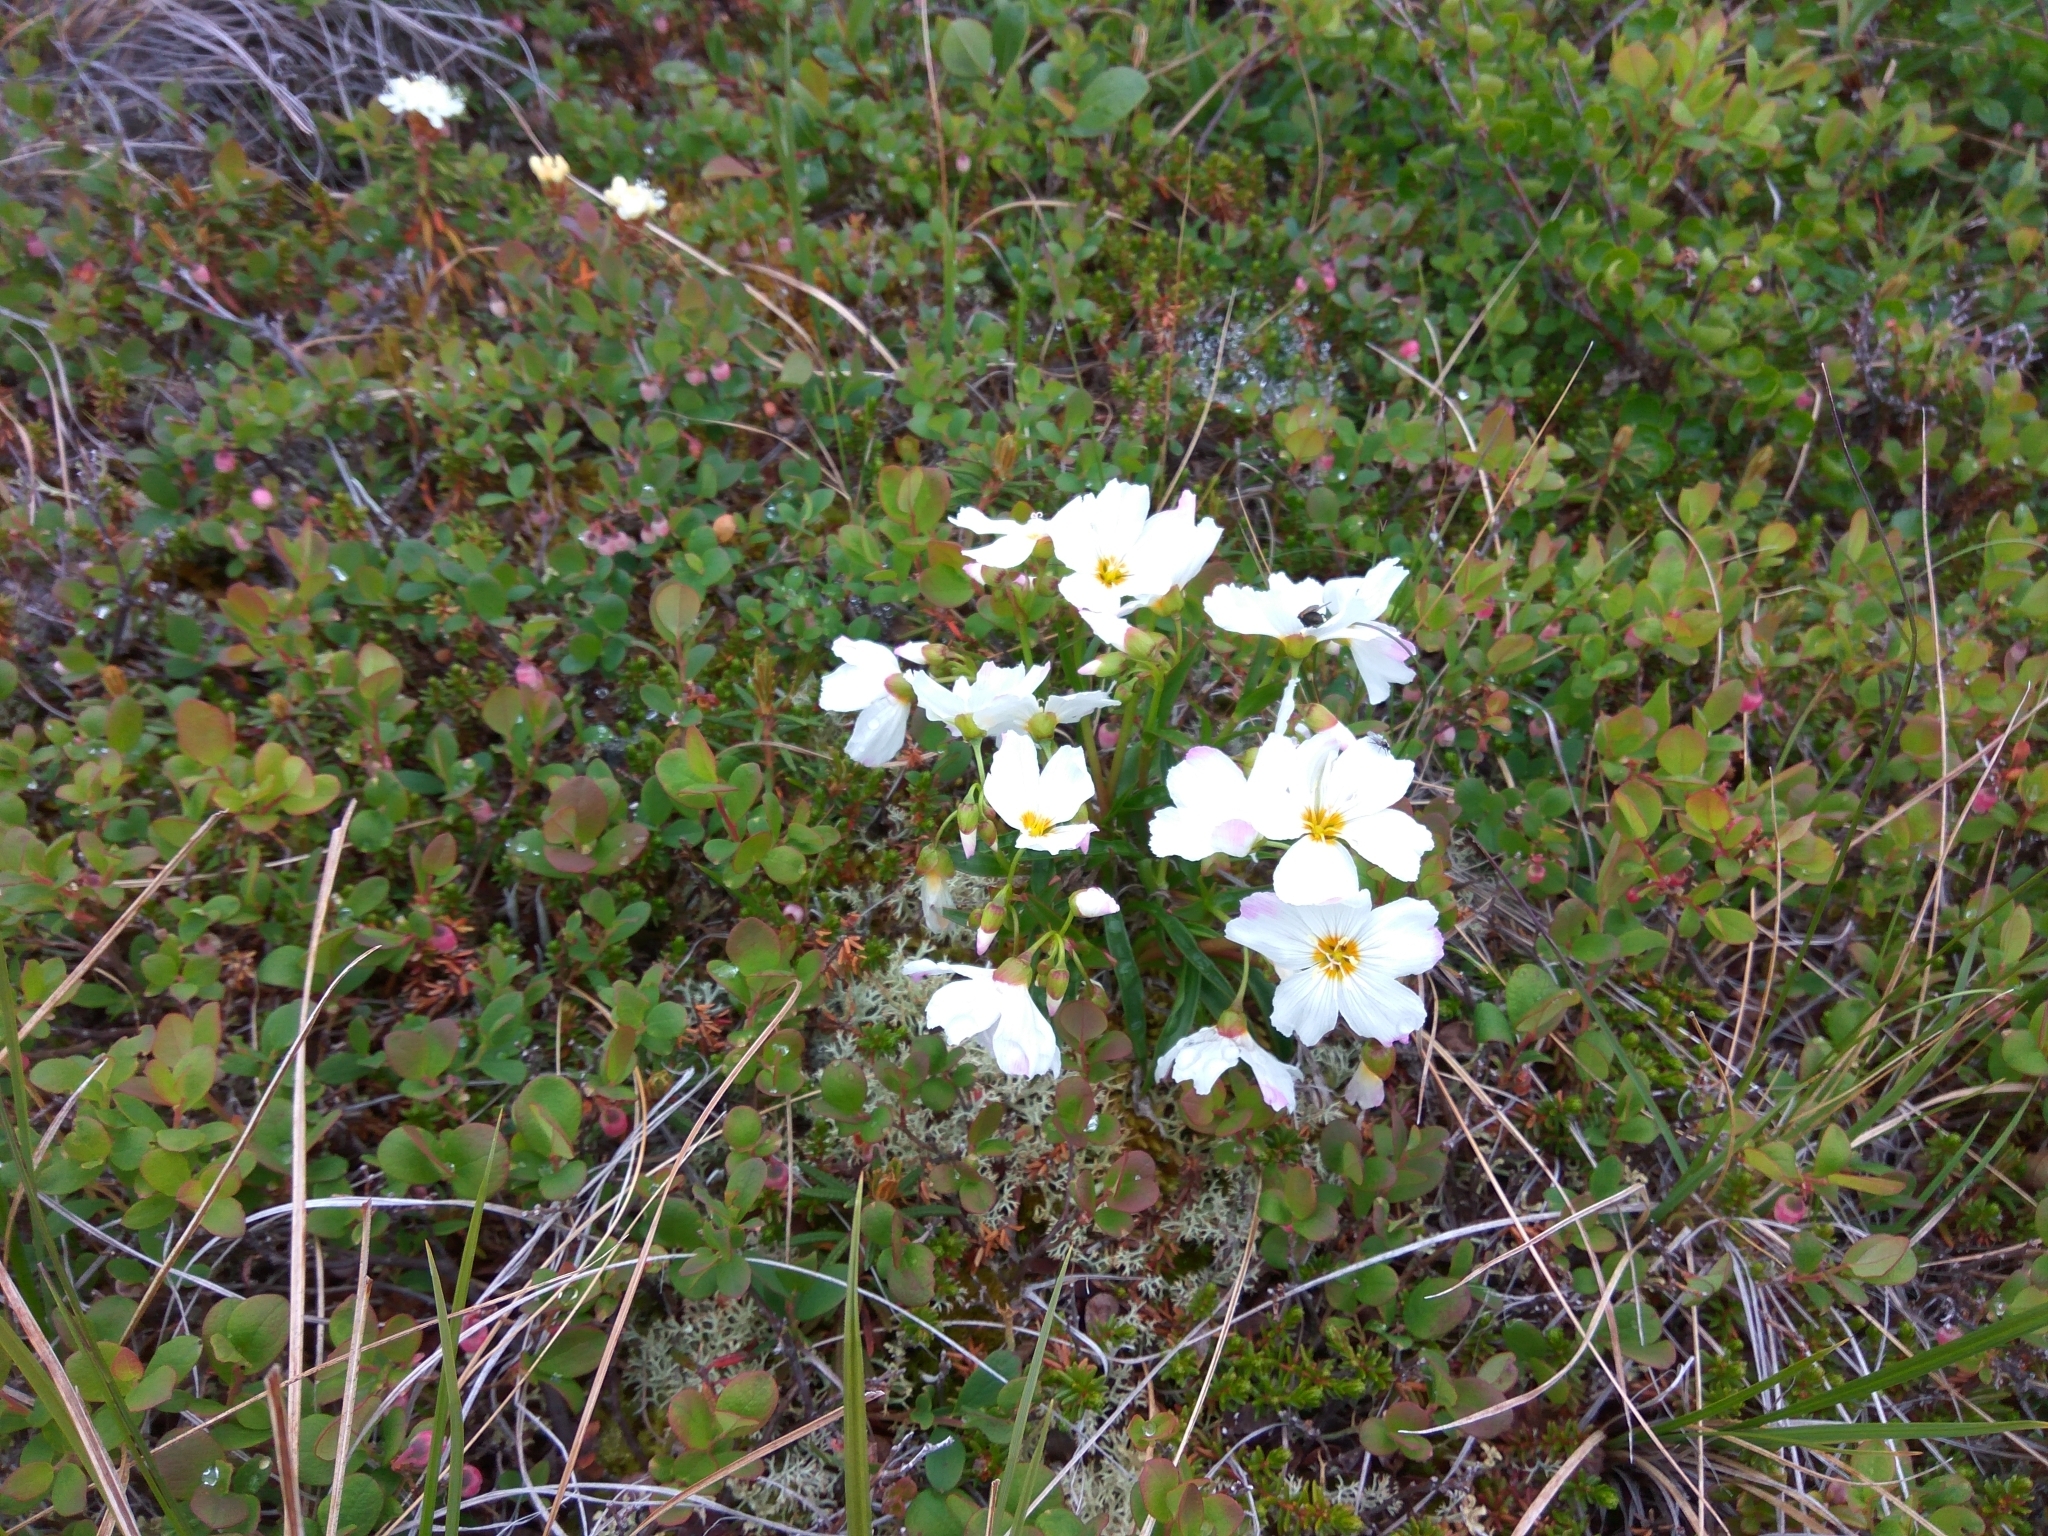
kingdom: Plantae
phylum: Tracheophyta
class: Magnoliopsida
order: Caryophyllales
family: Montiaceae
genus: Claytonia
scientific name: Claytonia acutifolia
